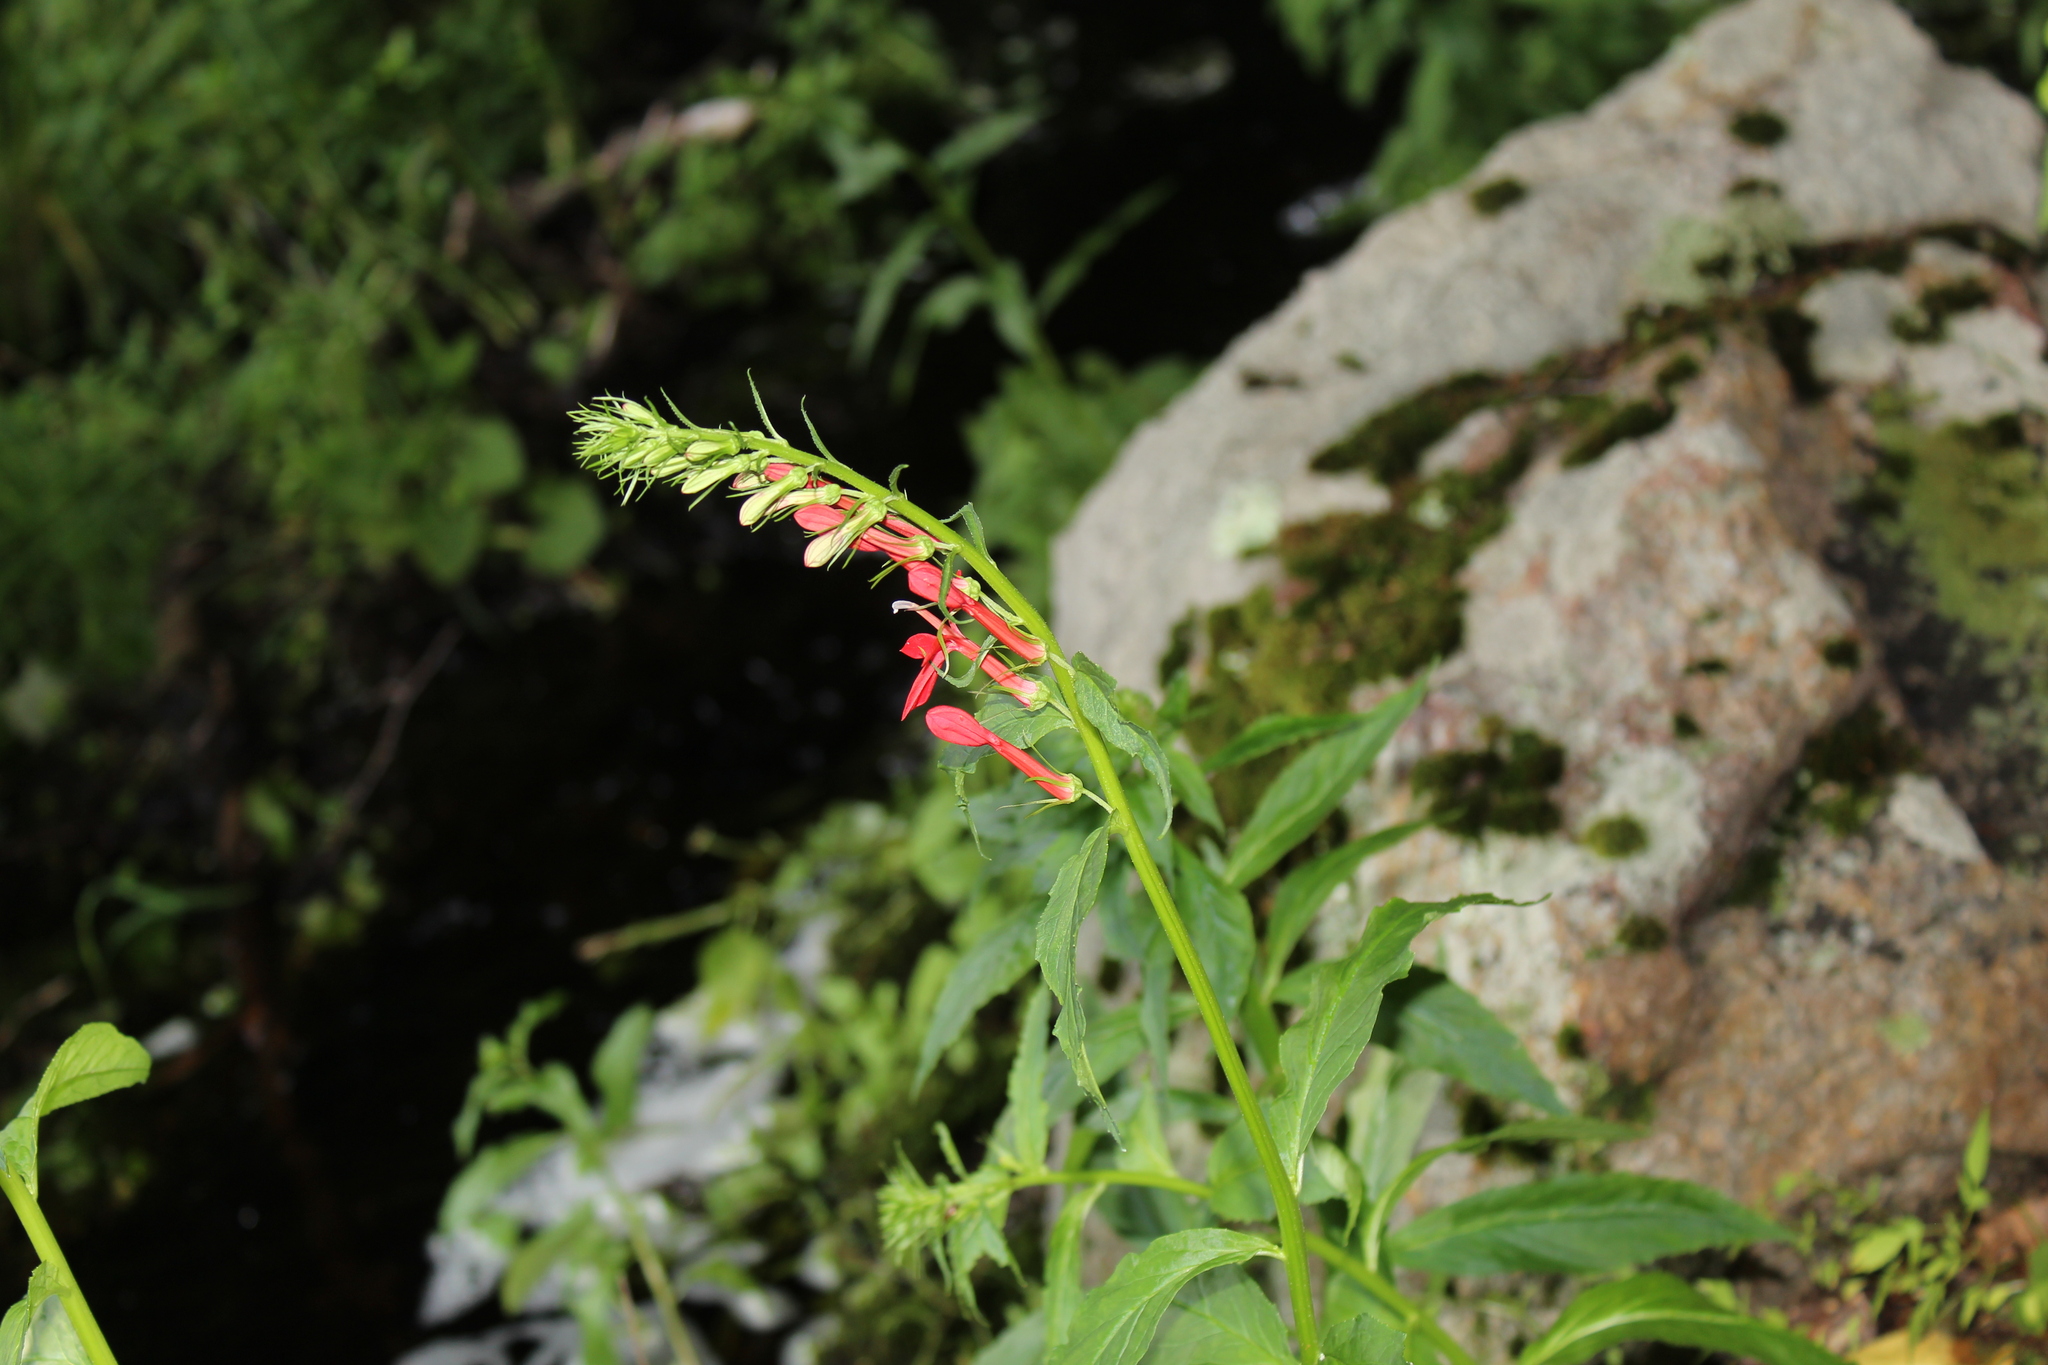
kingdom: Plantae
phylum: Tracheophyta
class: Magnoliopsida
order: Asterales
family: Campanulaceae
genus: Lobelia
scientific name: Lobelia cardinalis
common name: Cardinal flower
